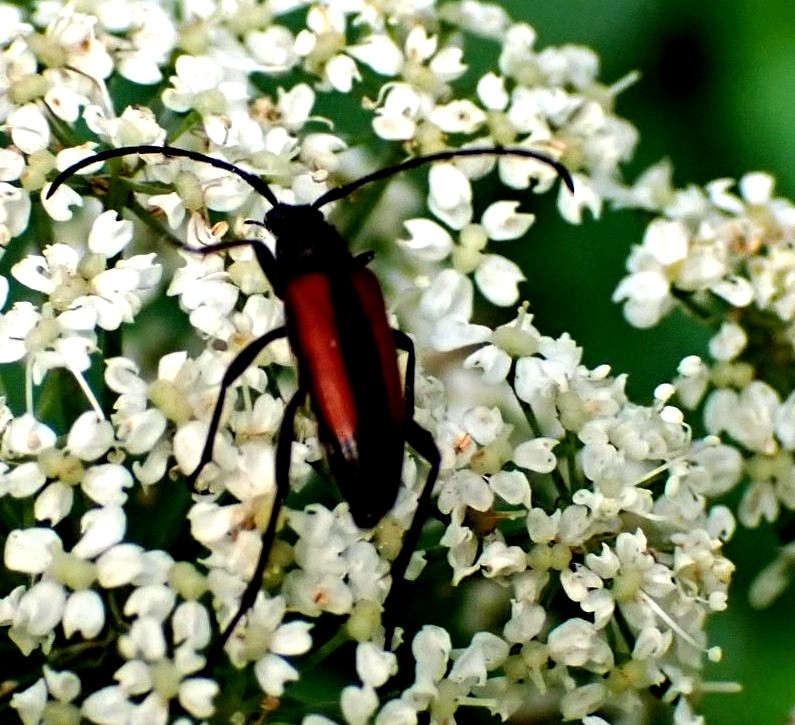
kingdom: Animalia
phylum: Arthropoda
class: Insecta
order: Coleoptera
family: Cerambycidae
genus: Stenurella
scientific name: Stenurella melanura
